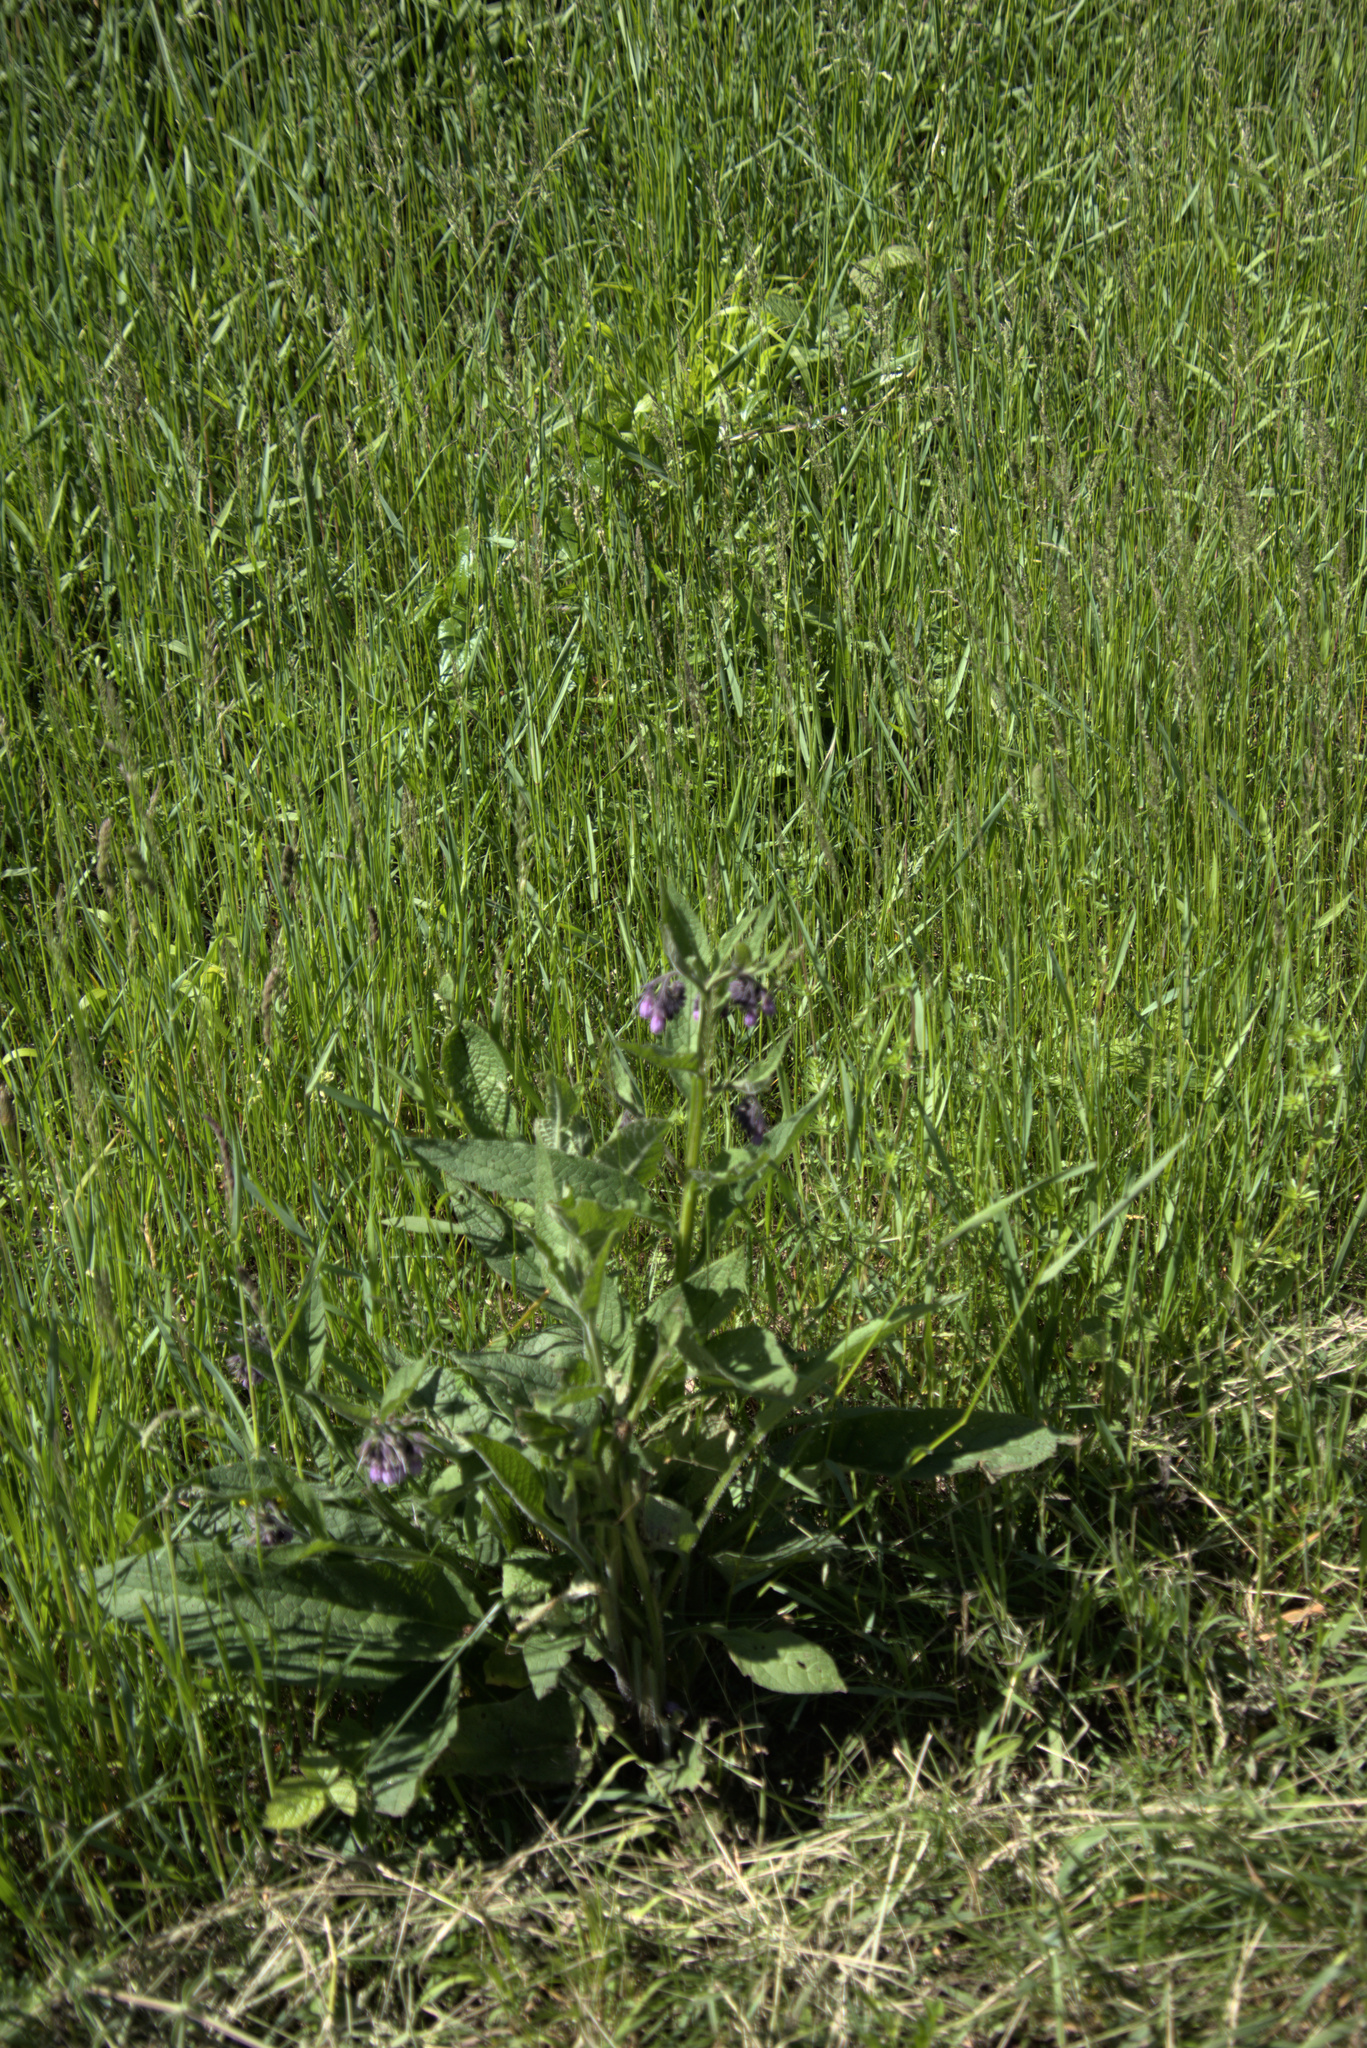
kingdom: Plantae
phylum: Tracheophyta
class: Magnoliopsida
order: Boraginales
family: Boraginaceae
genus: Symphytum
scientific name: Symphytum officinale
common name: Common comfrey
